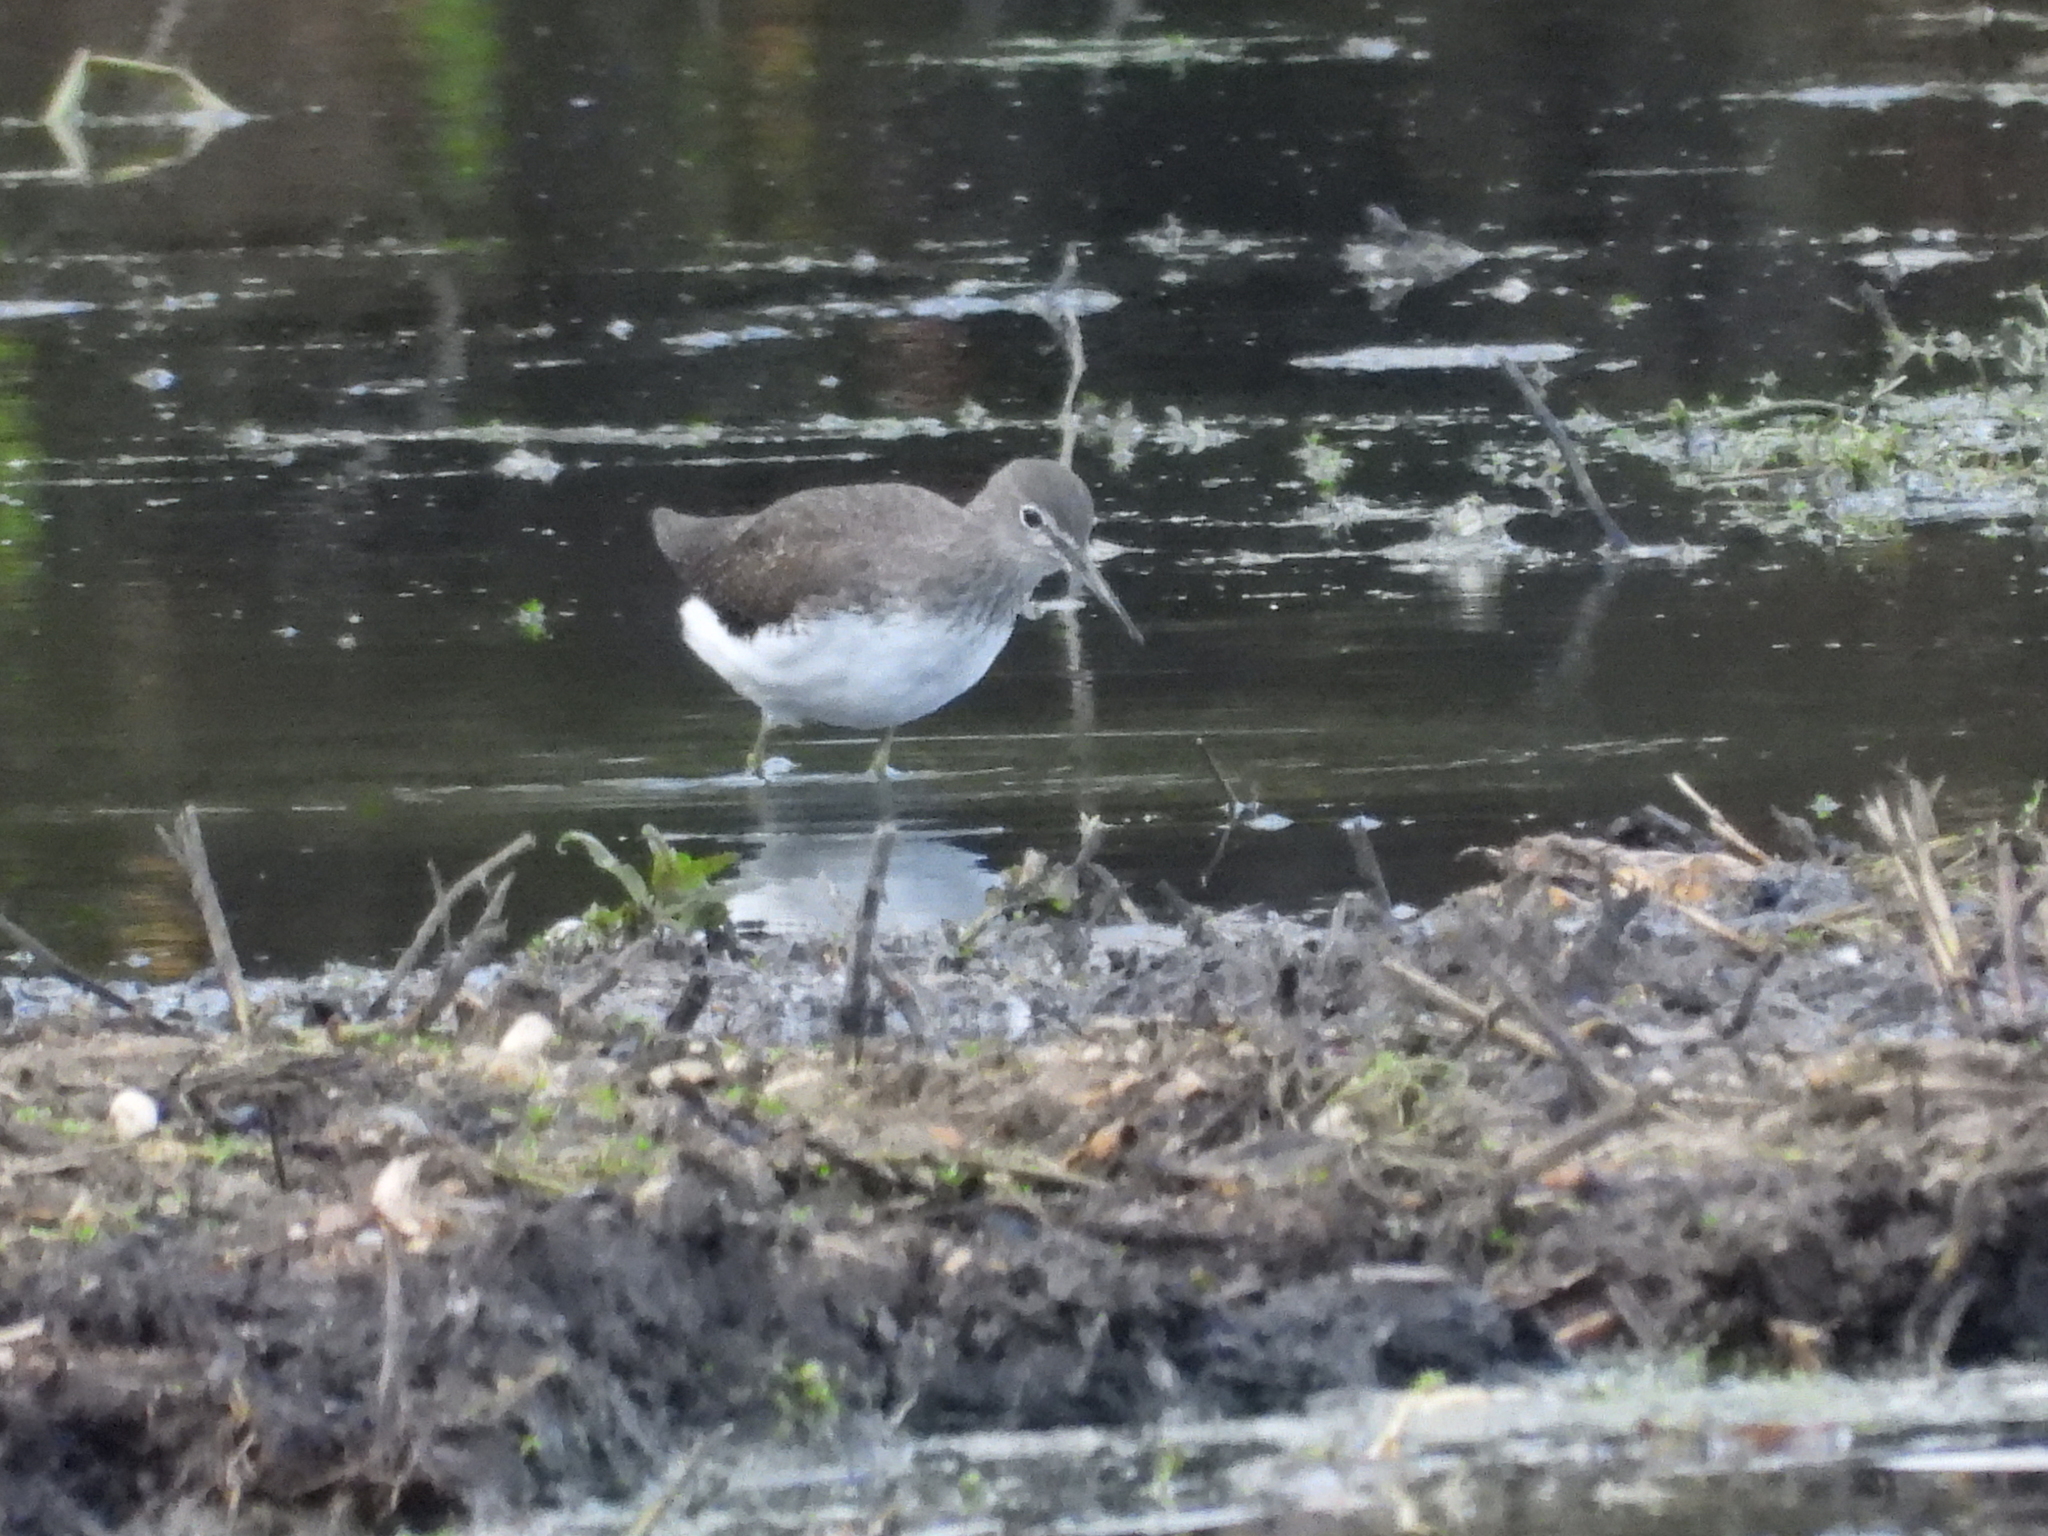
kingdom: Animalia
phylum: Chordata
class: Aves
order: Charadriiformes
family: Scolopacidae
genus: Tringa
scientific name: Tringa ochropus
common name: Green sandpiper
